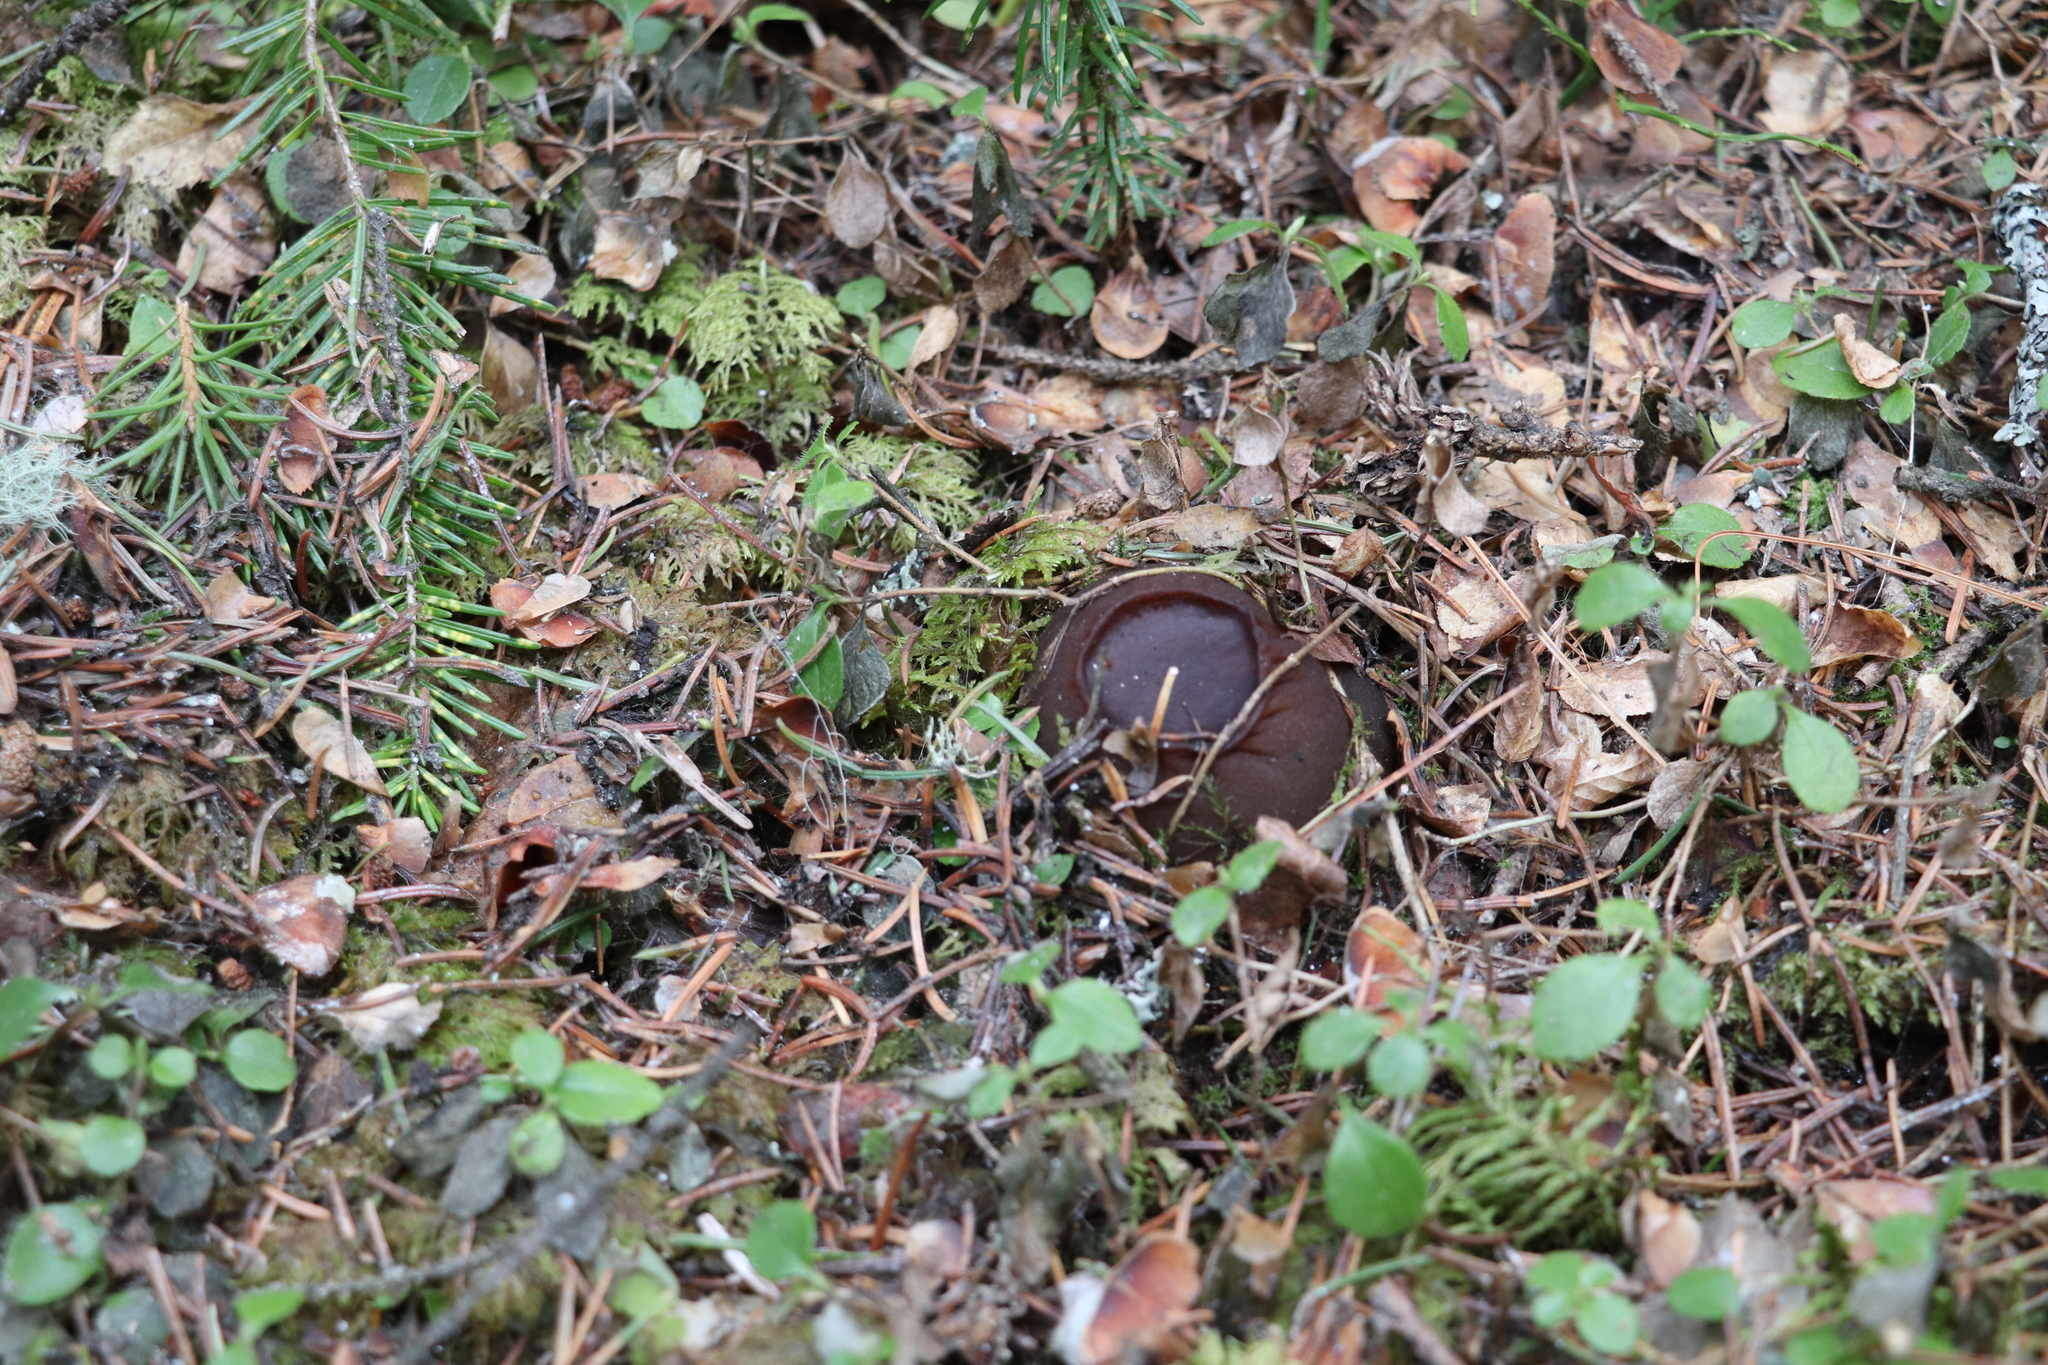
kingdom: Fungi
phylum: Ascomycota
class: Pezizomycetes
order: Pezizales
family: Sarcosomataceae
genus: Sarcosoma
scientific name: Sarcosoma globosum
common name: Charred-pancake cup
